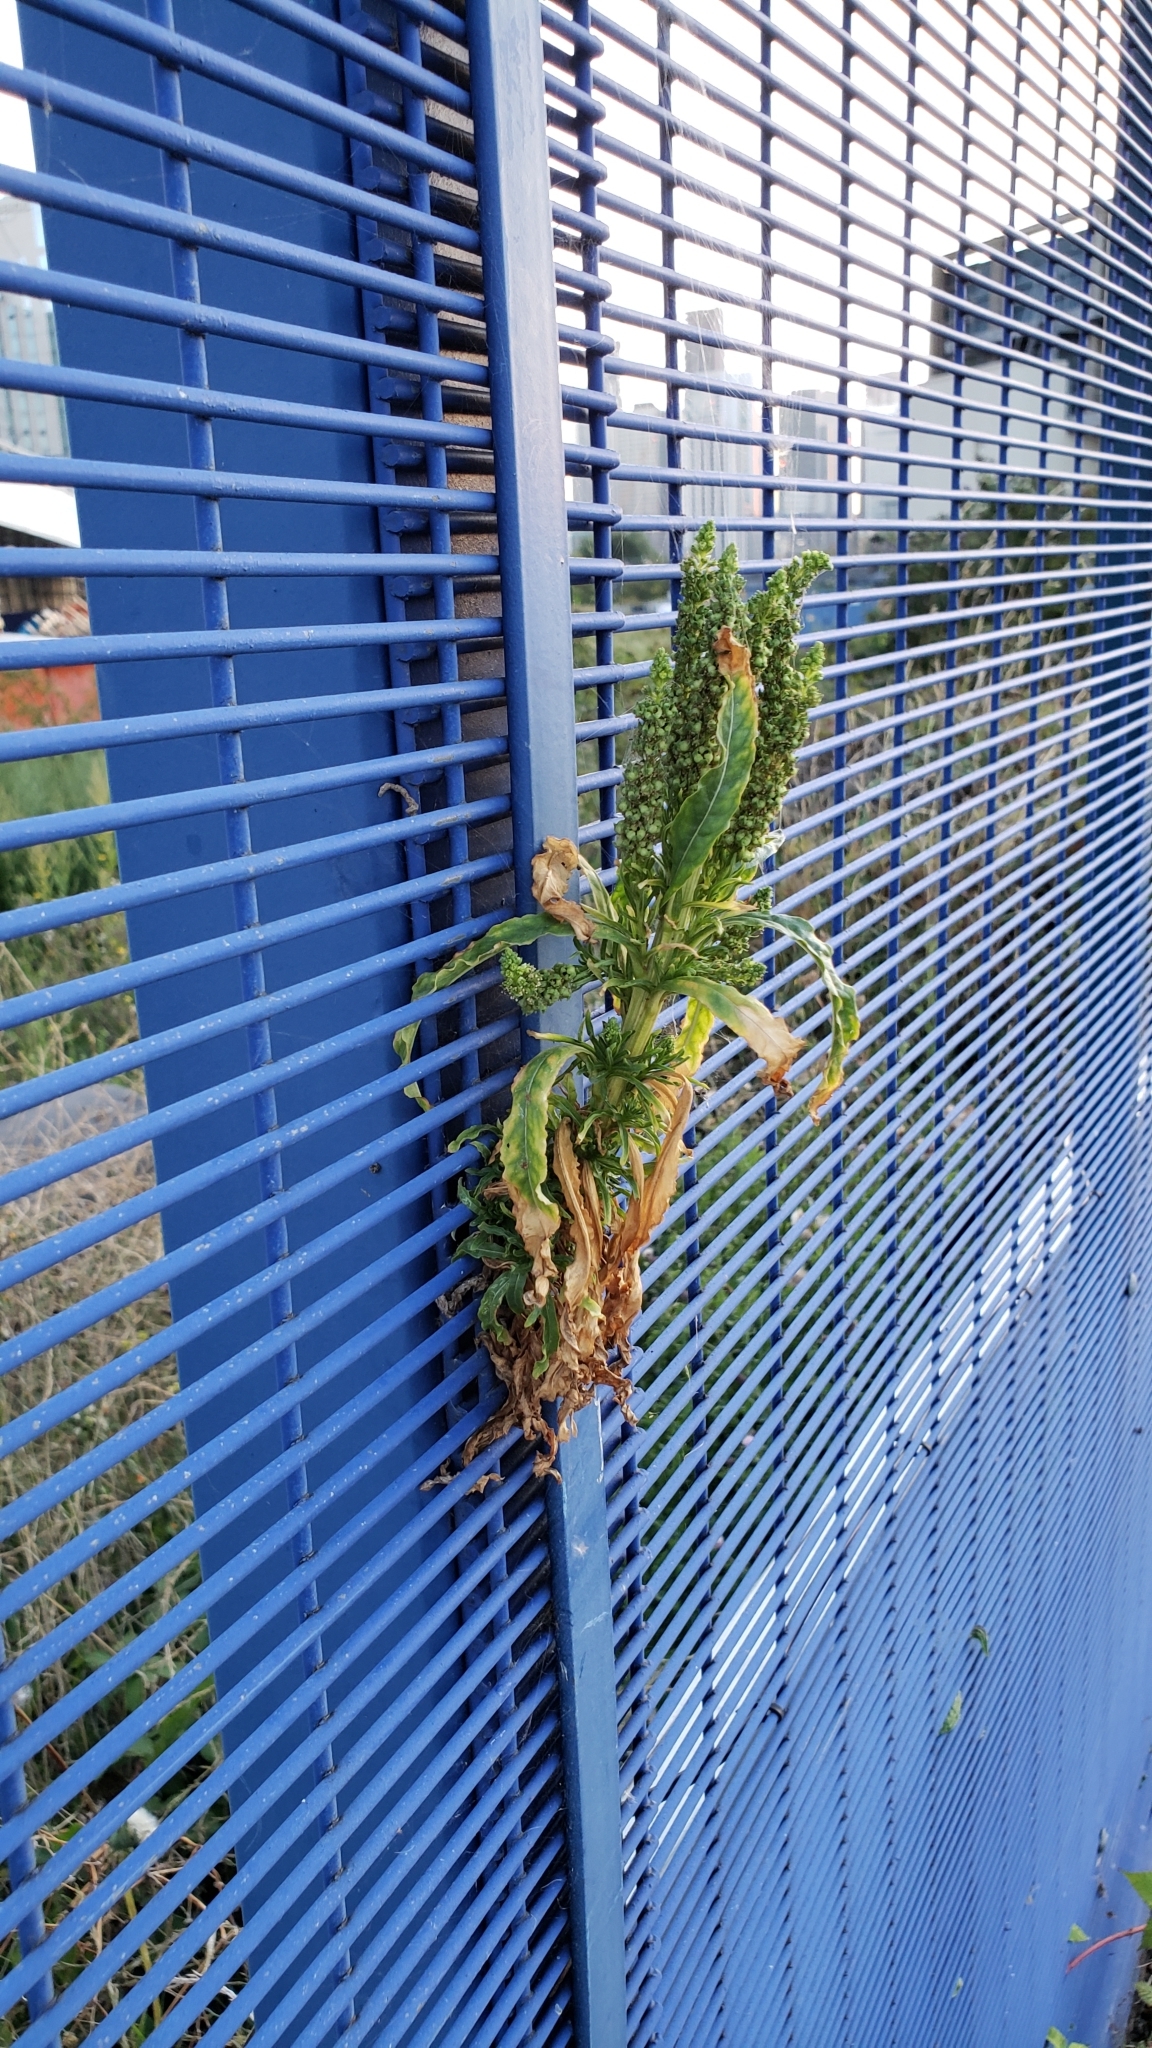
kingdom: Plantae
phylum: Tracheophyta
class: Magnoliopsida
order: Brassicales
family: Resedaceae
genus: Reseda
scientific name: Reseda luteola
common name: Weld
